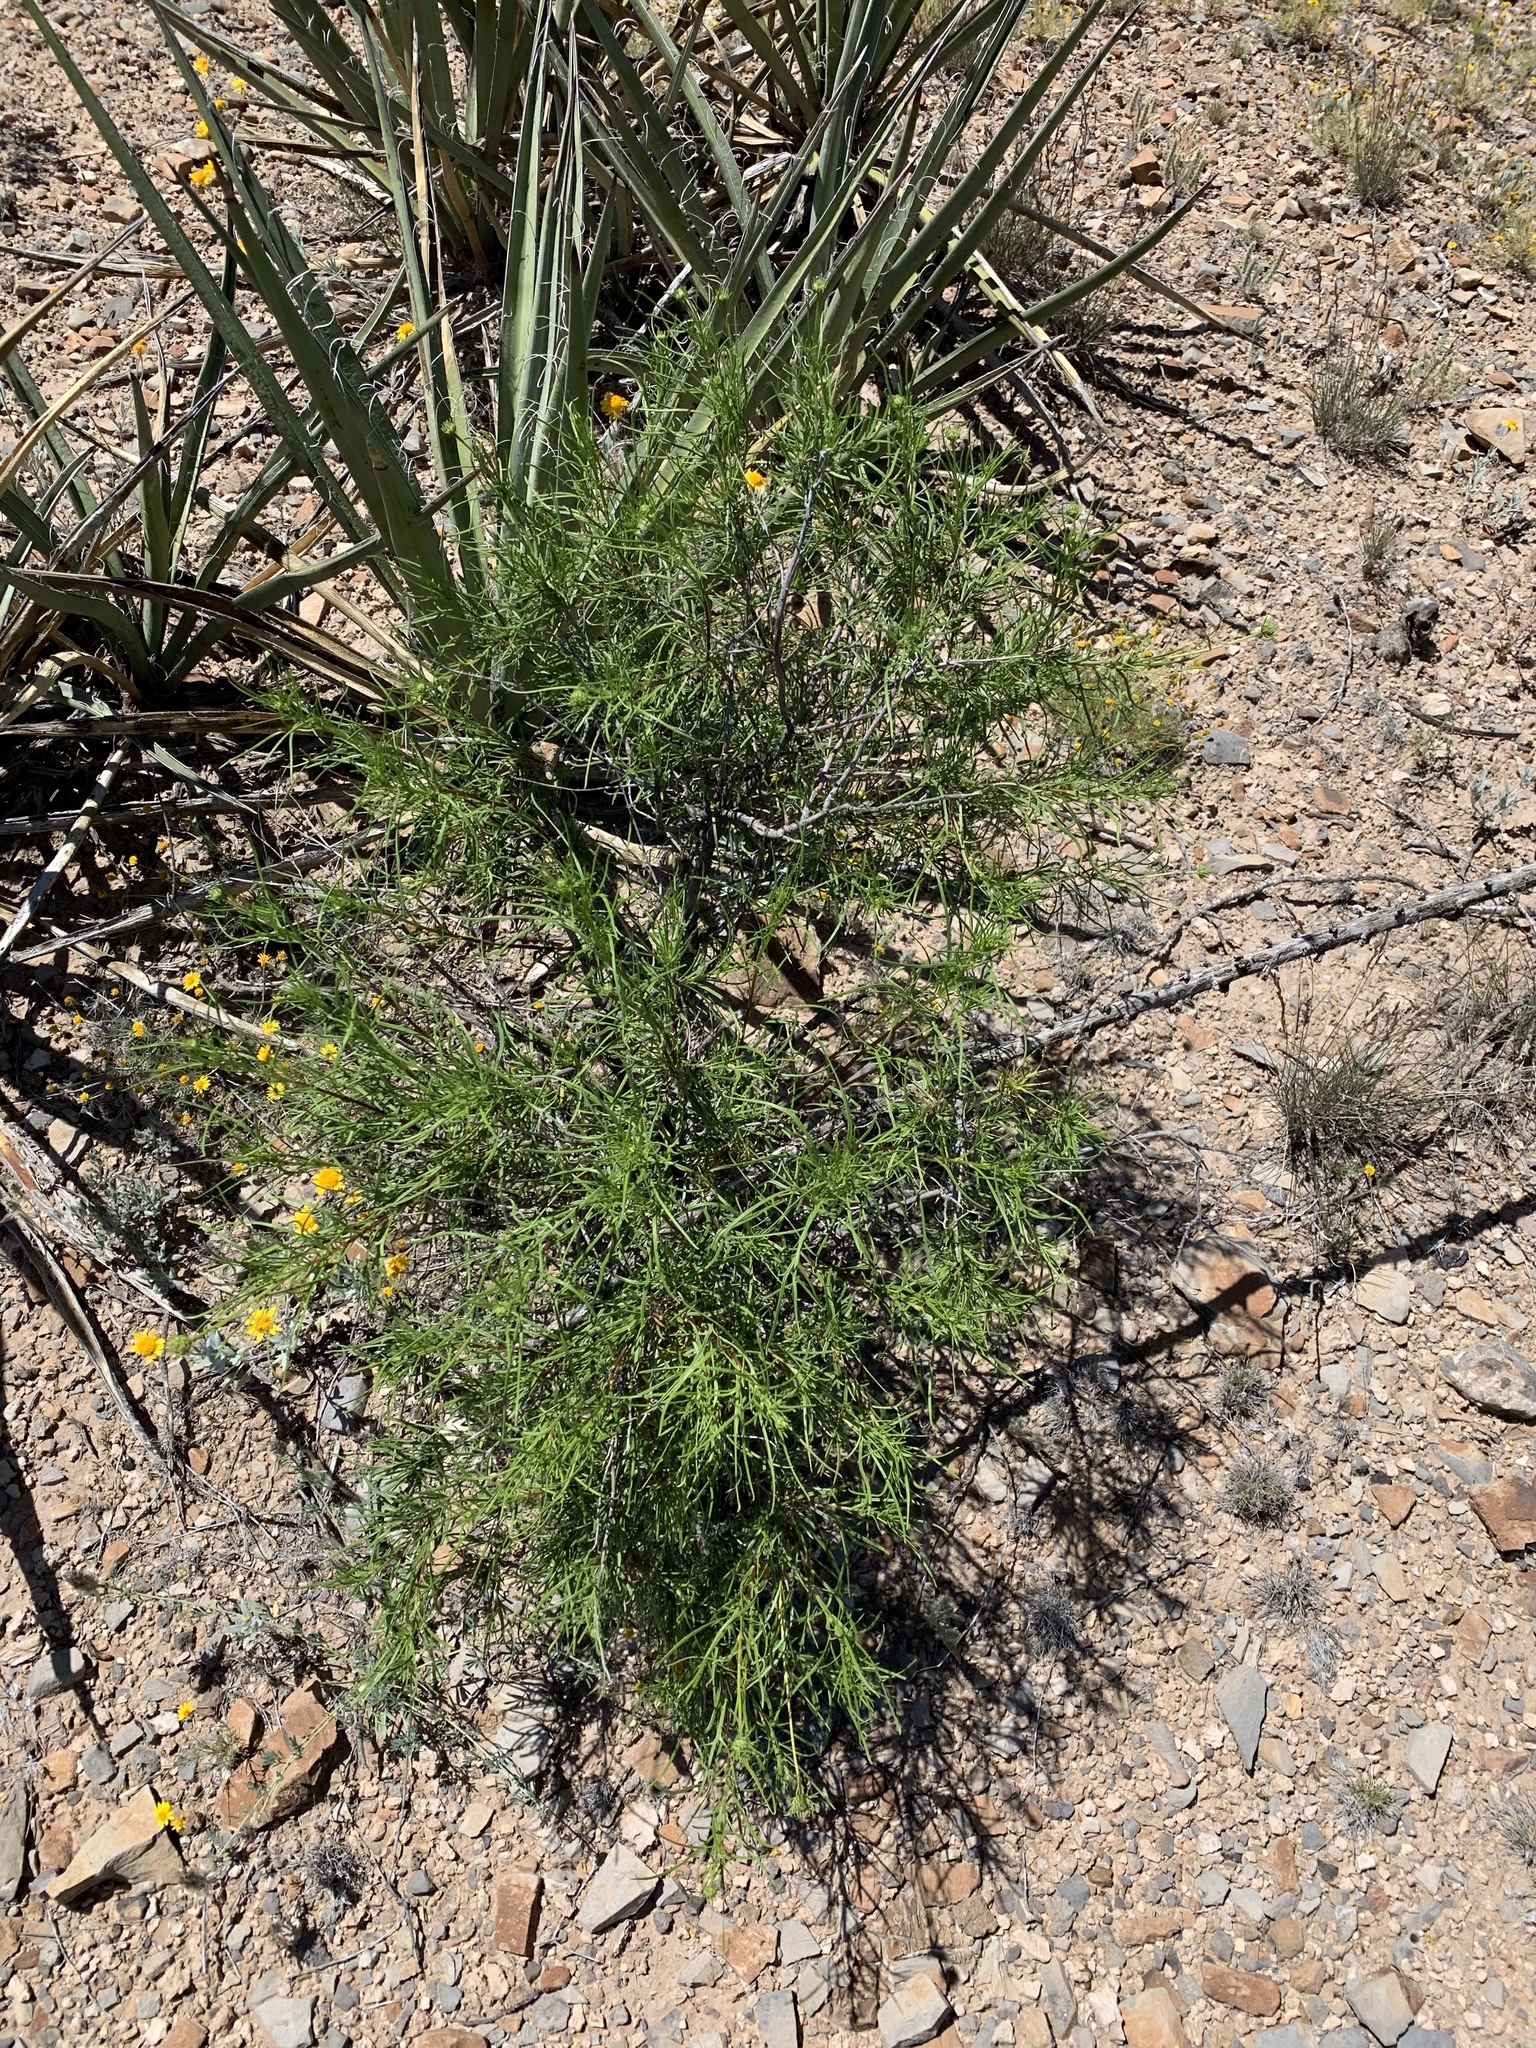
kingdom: Plantae
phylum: Tracheophyta
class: Magnoliopsida
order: Asterales
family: Asteraceae
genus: Sidneya
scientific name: Sidneya tenuifolia
